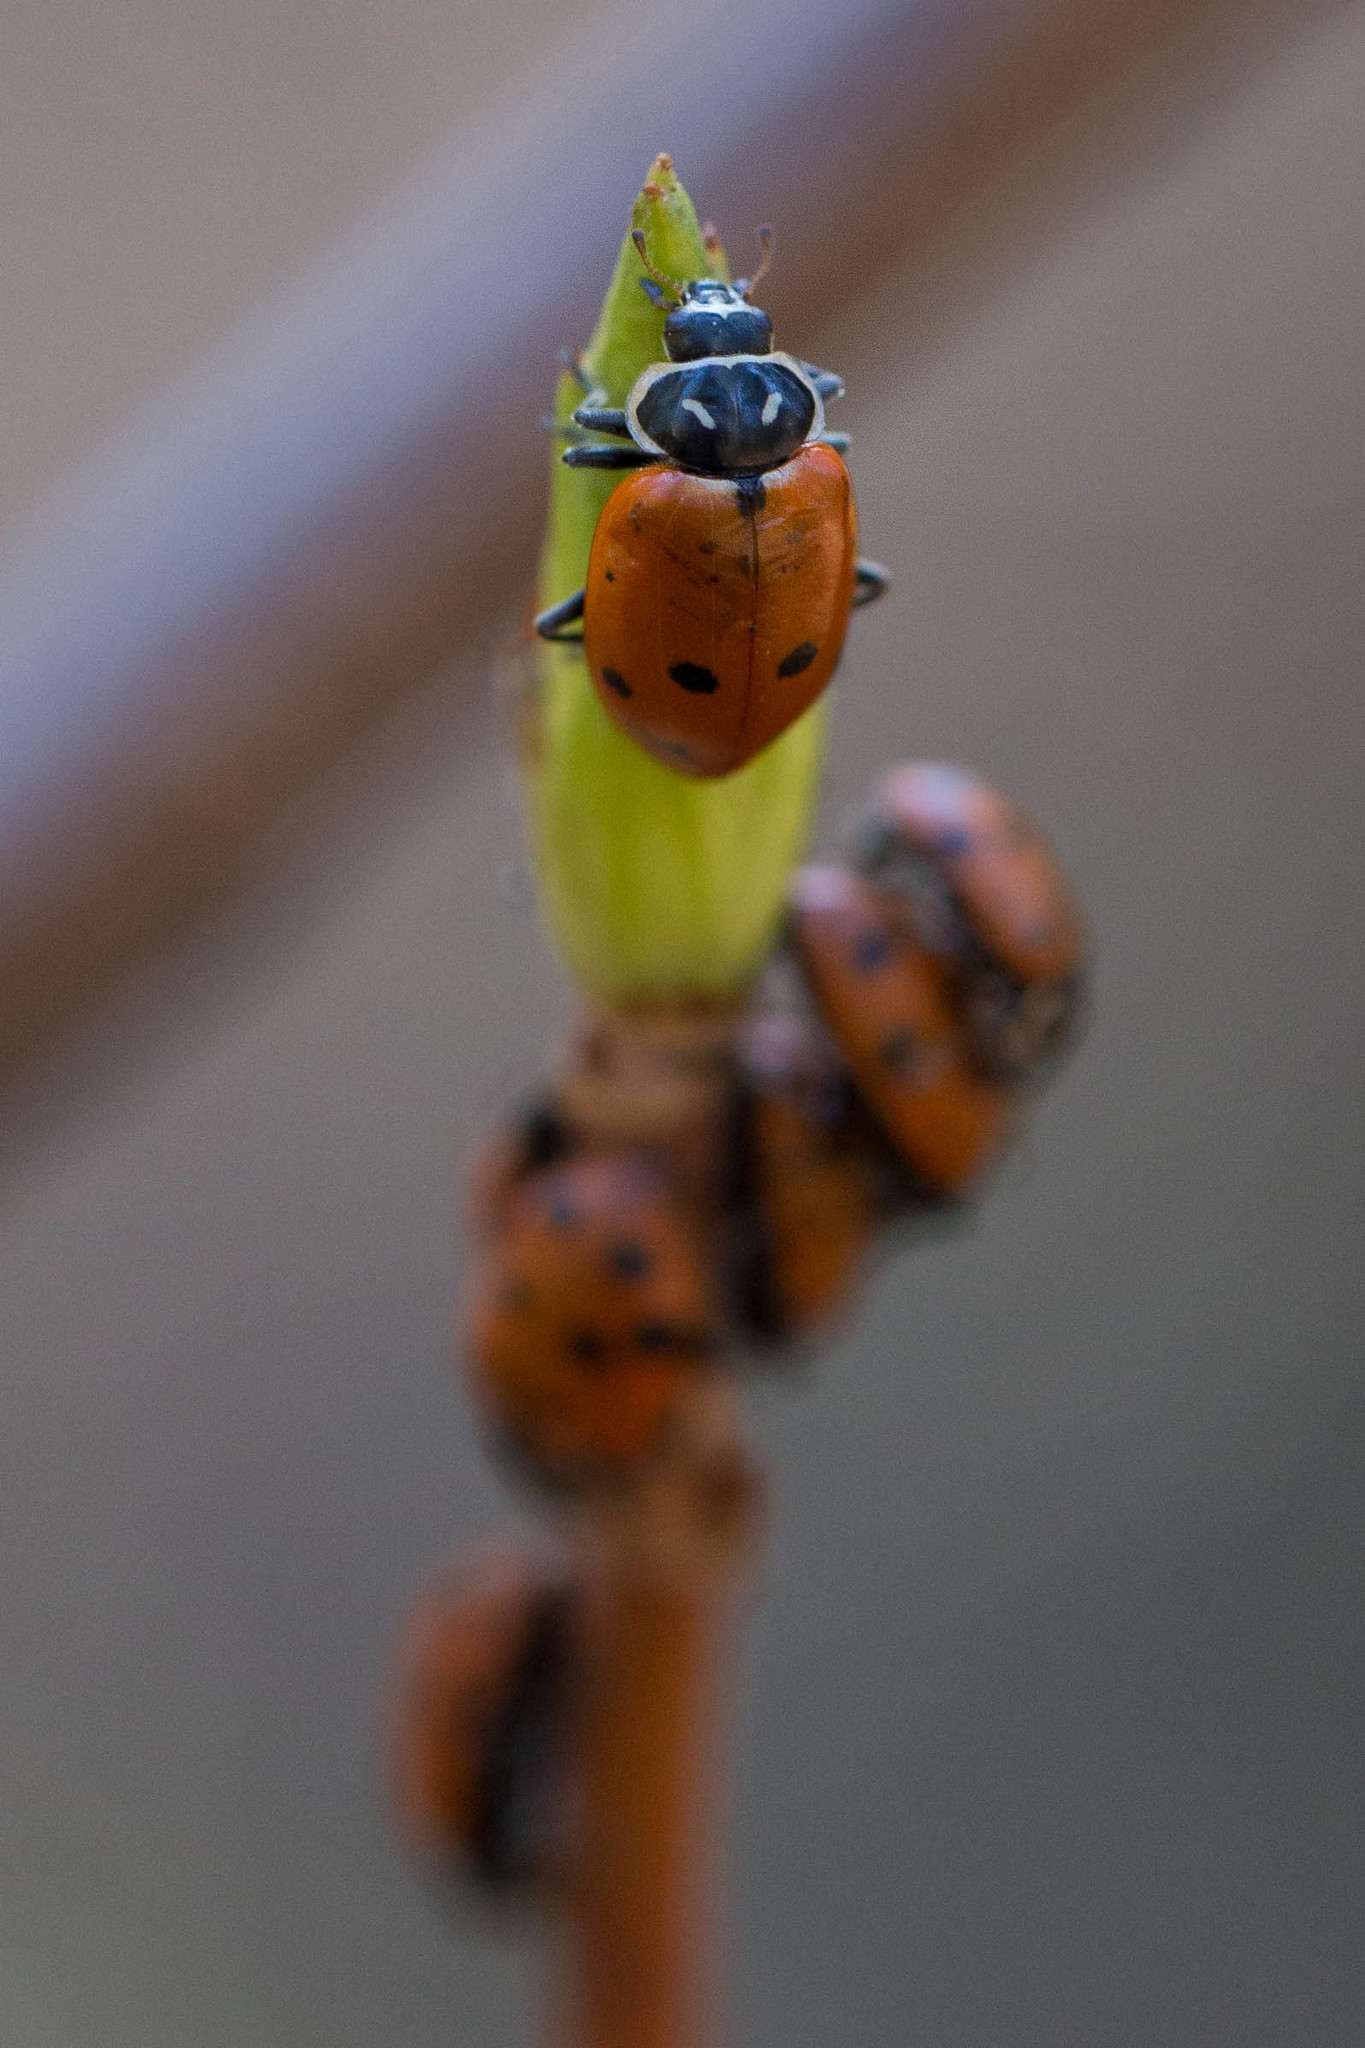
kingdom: Animalia
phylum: Arthropoda
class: Insecta
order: Coleoptera
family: Coccinellidae
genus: Hippodamia
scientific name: Hippodamia convergens
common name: Convergent lady beetle
